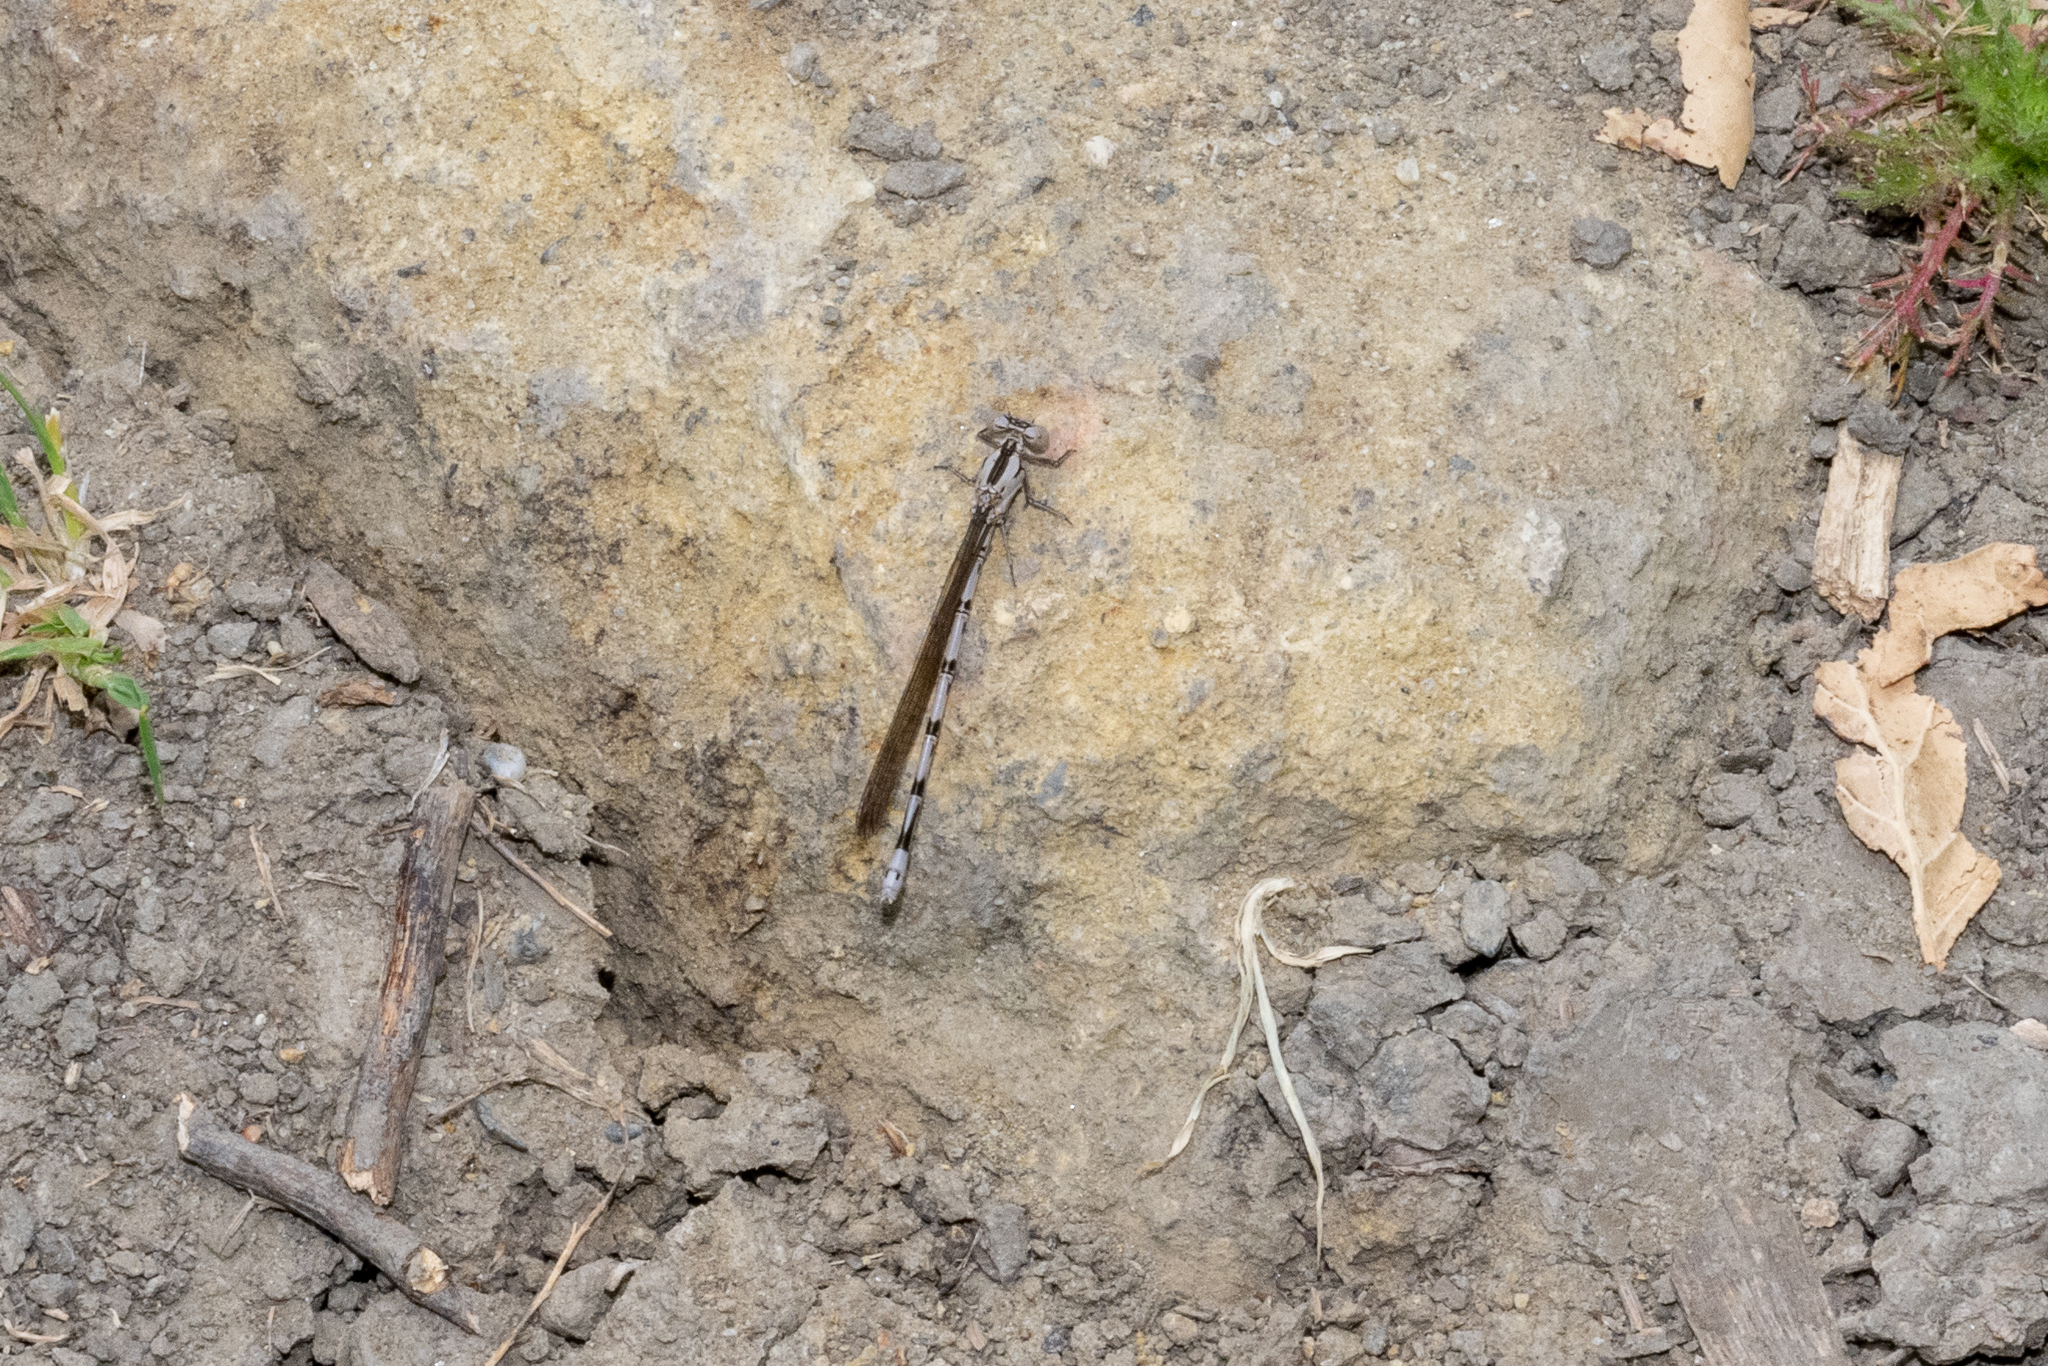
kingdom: Animalia
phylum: Arthropoda
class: Insecta
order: Odonata
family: Coenagrionidae
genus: Argia
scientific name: Argia vivida
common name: Vivid dancer
